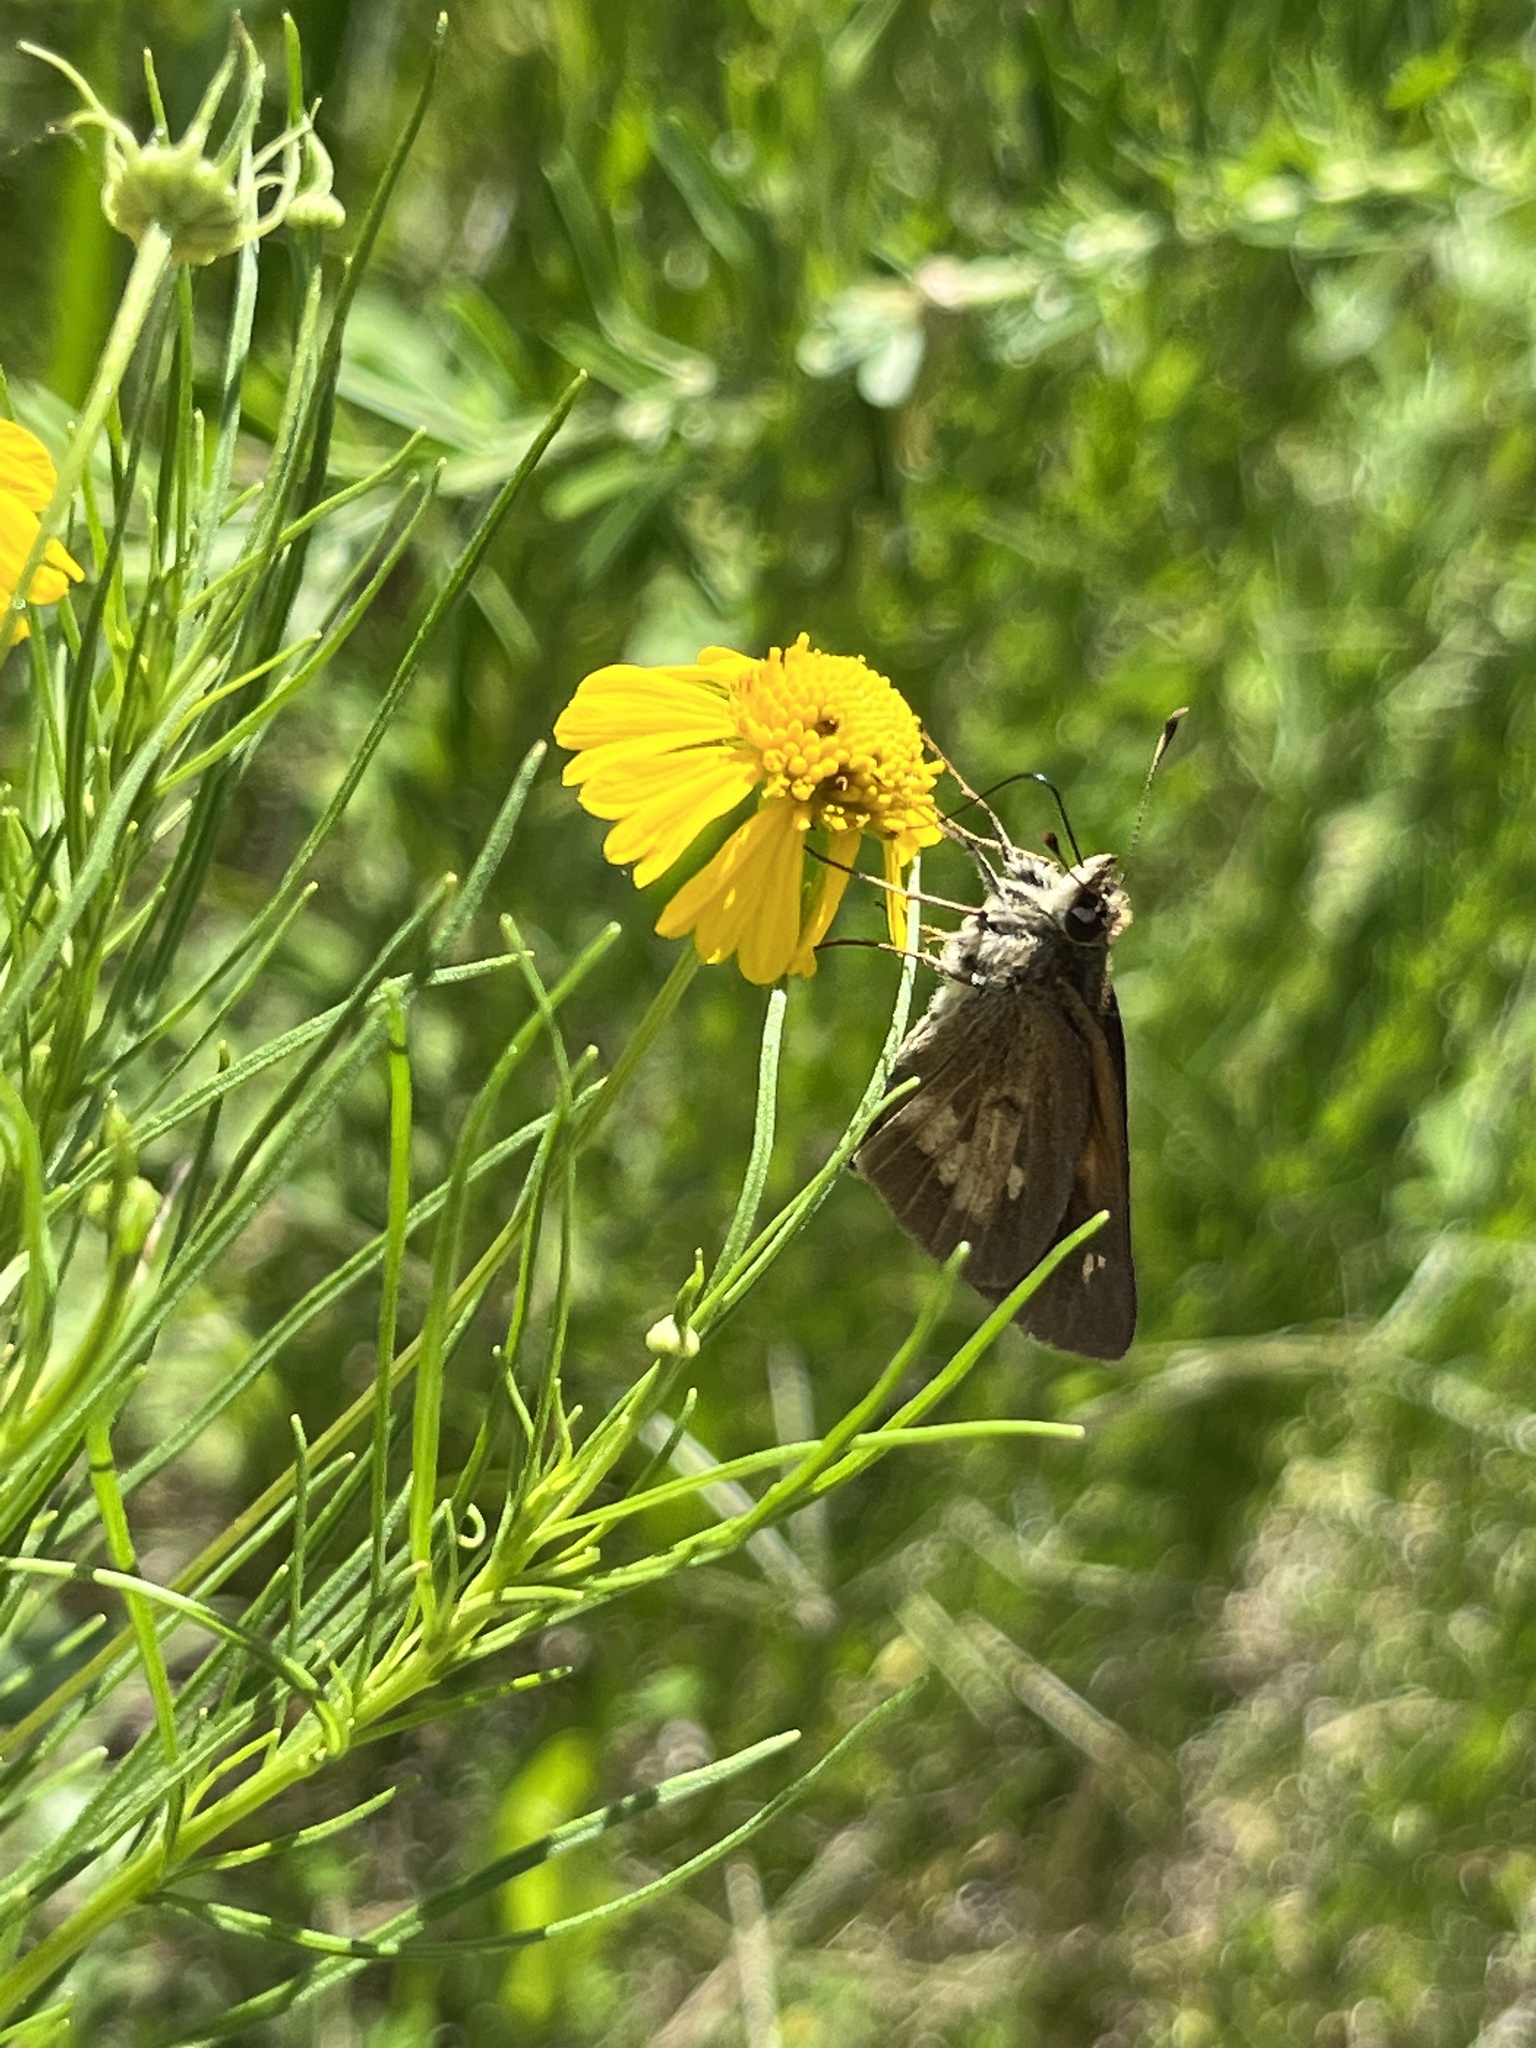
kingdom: Animalia
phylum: Arthropoda
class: Insecta
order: Lepidoptera
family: Hesperiidae
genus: Poanes
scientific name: Poanes viator
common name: Broad-winged skipper
